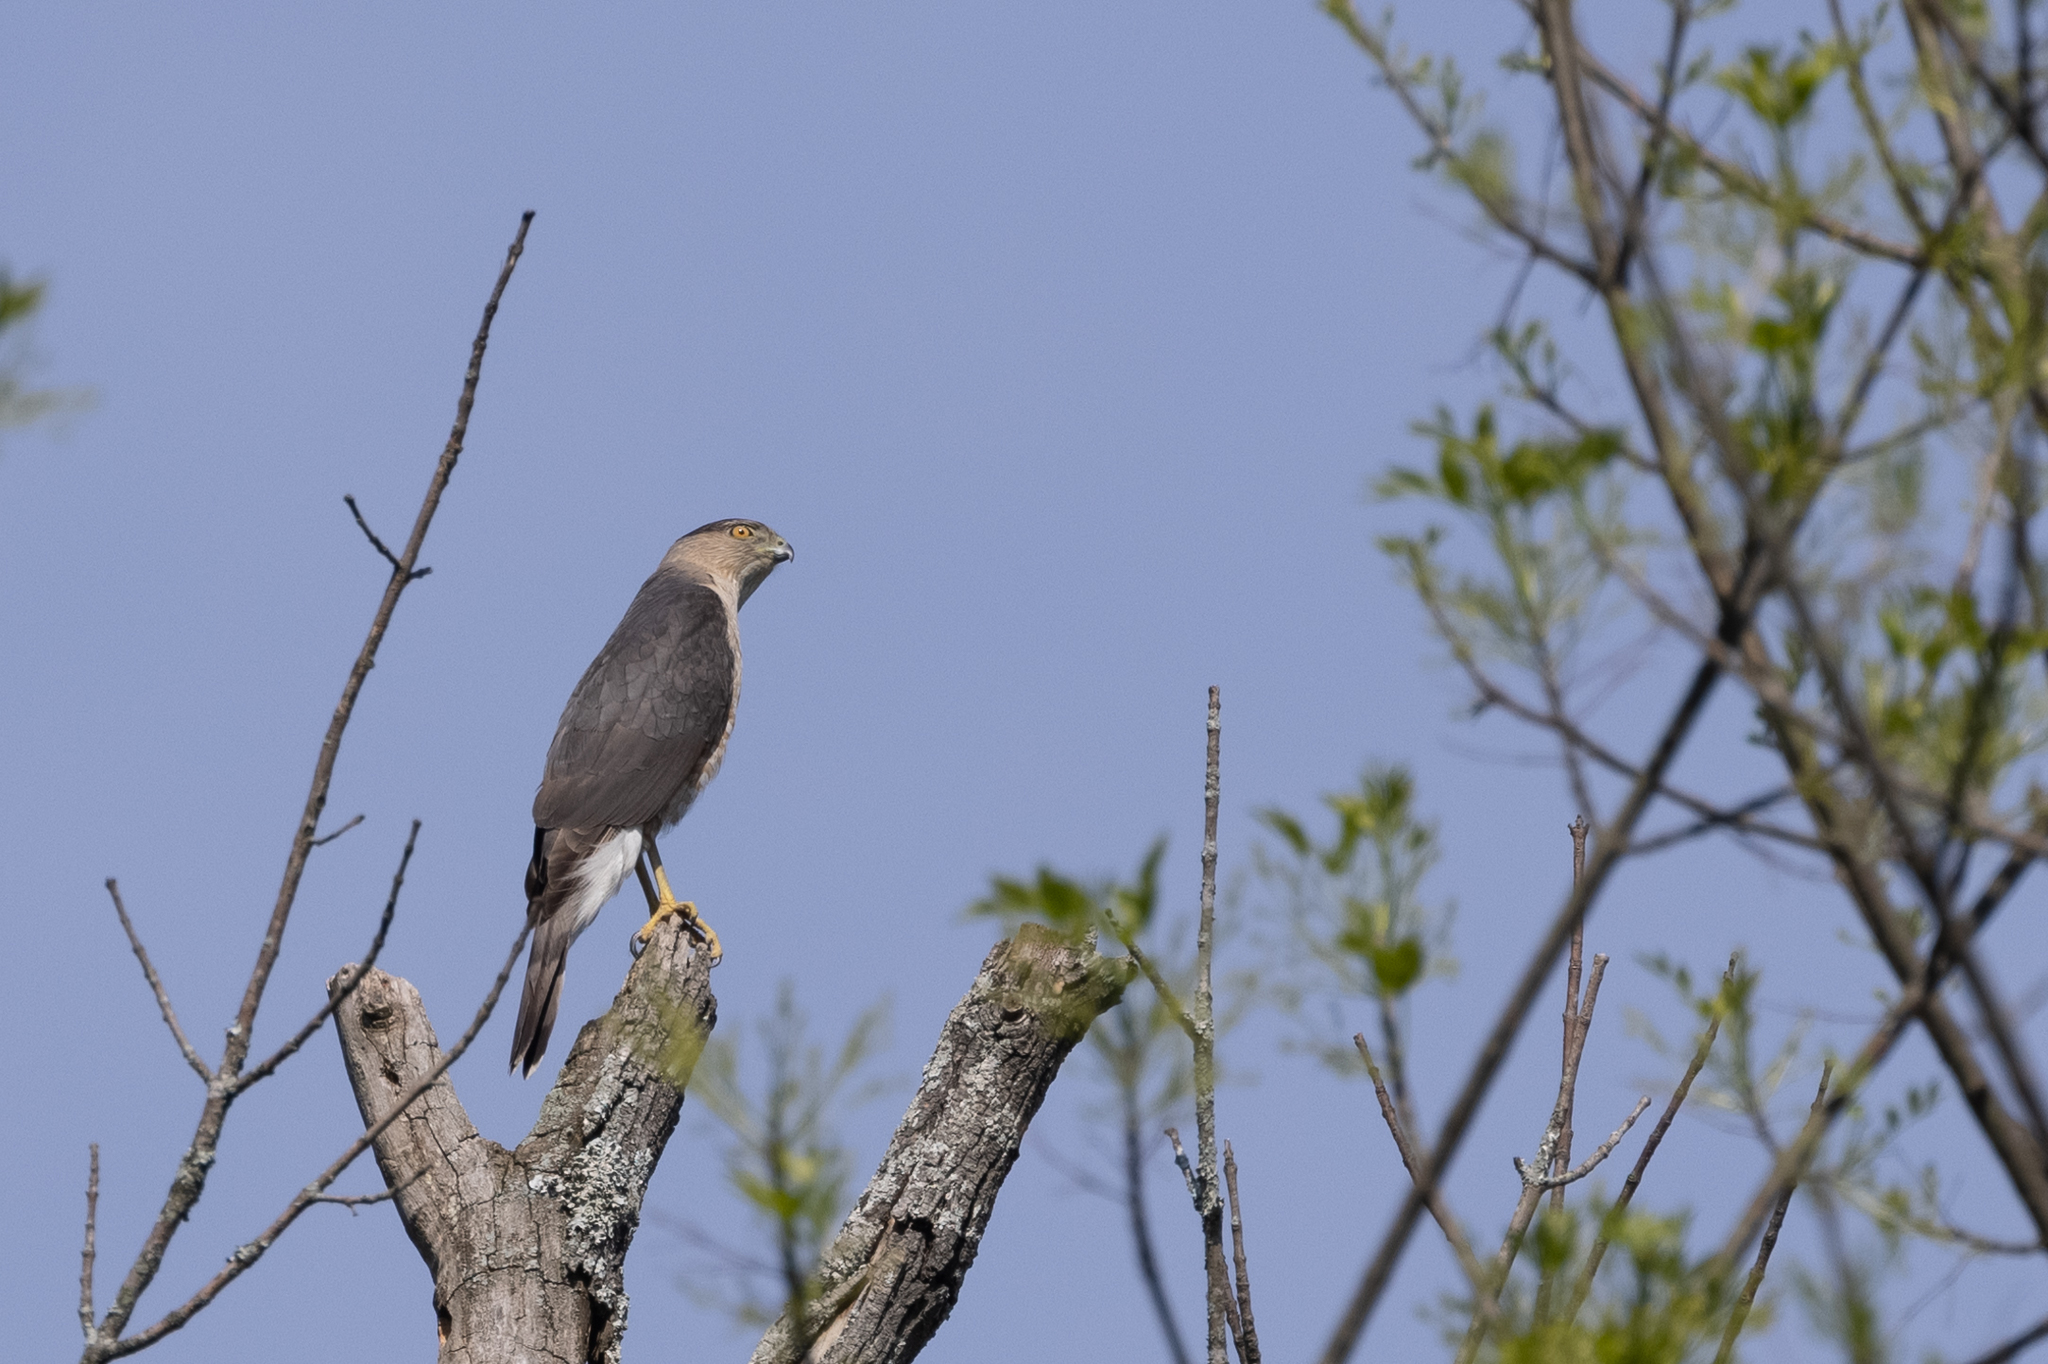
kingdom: Animalia
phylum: Chordata
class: Aves
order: Accipitriformes
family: Accipitridae
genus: Accipiter
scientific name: Accipiter cooperii
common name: Cooper's hawk
